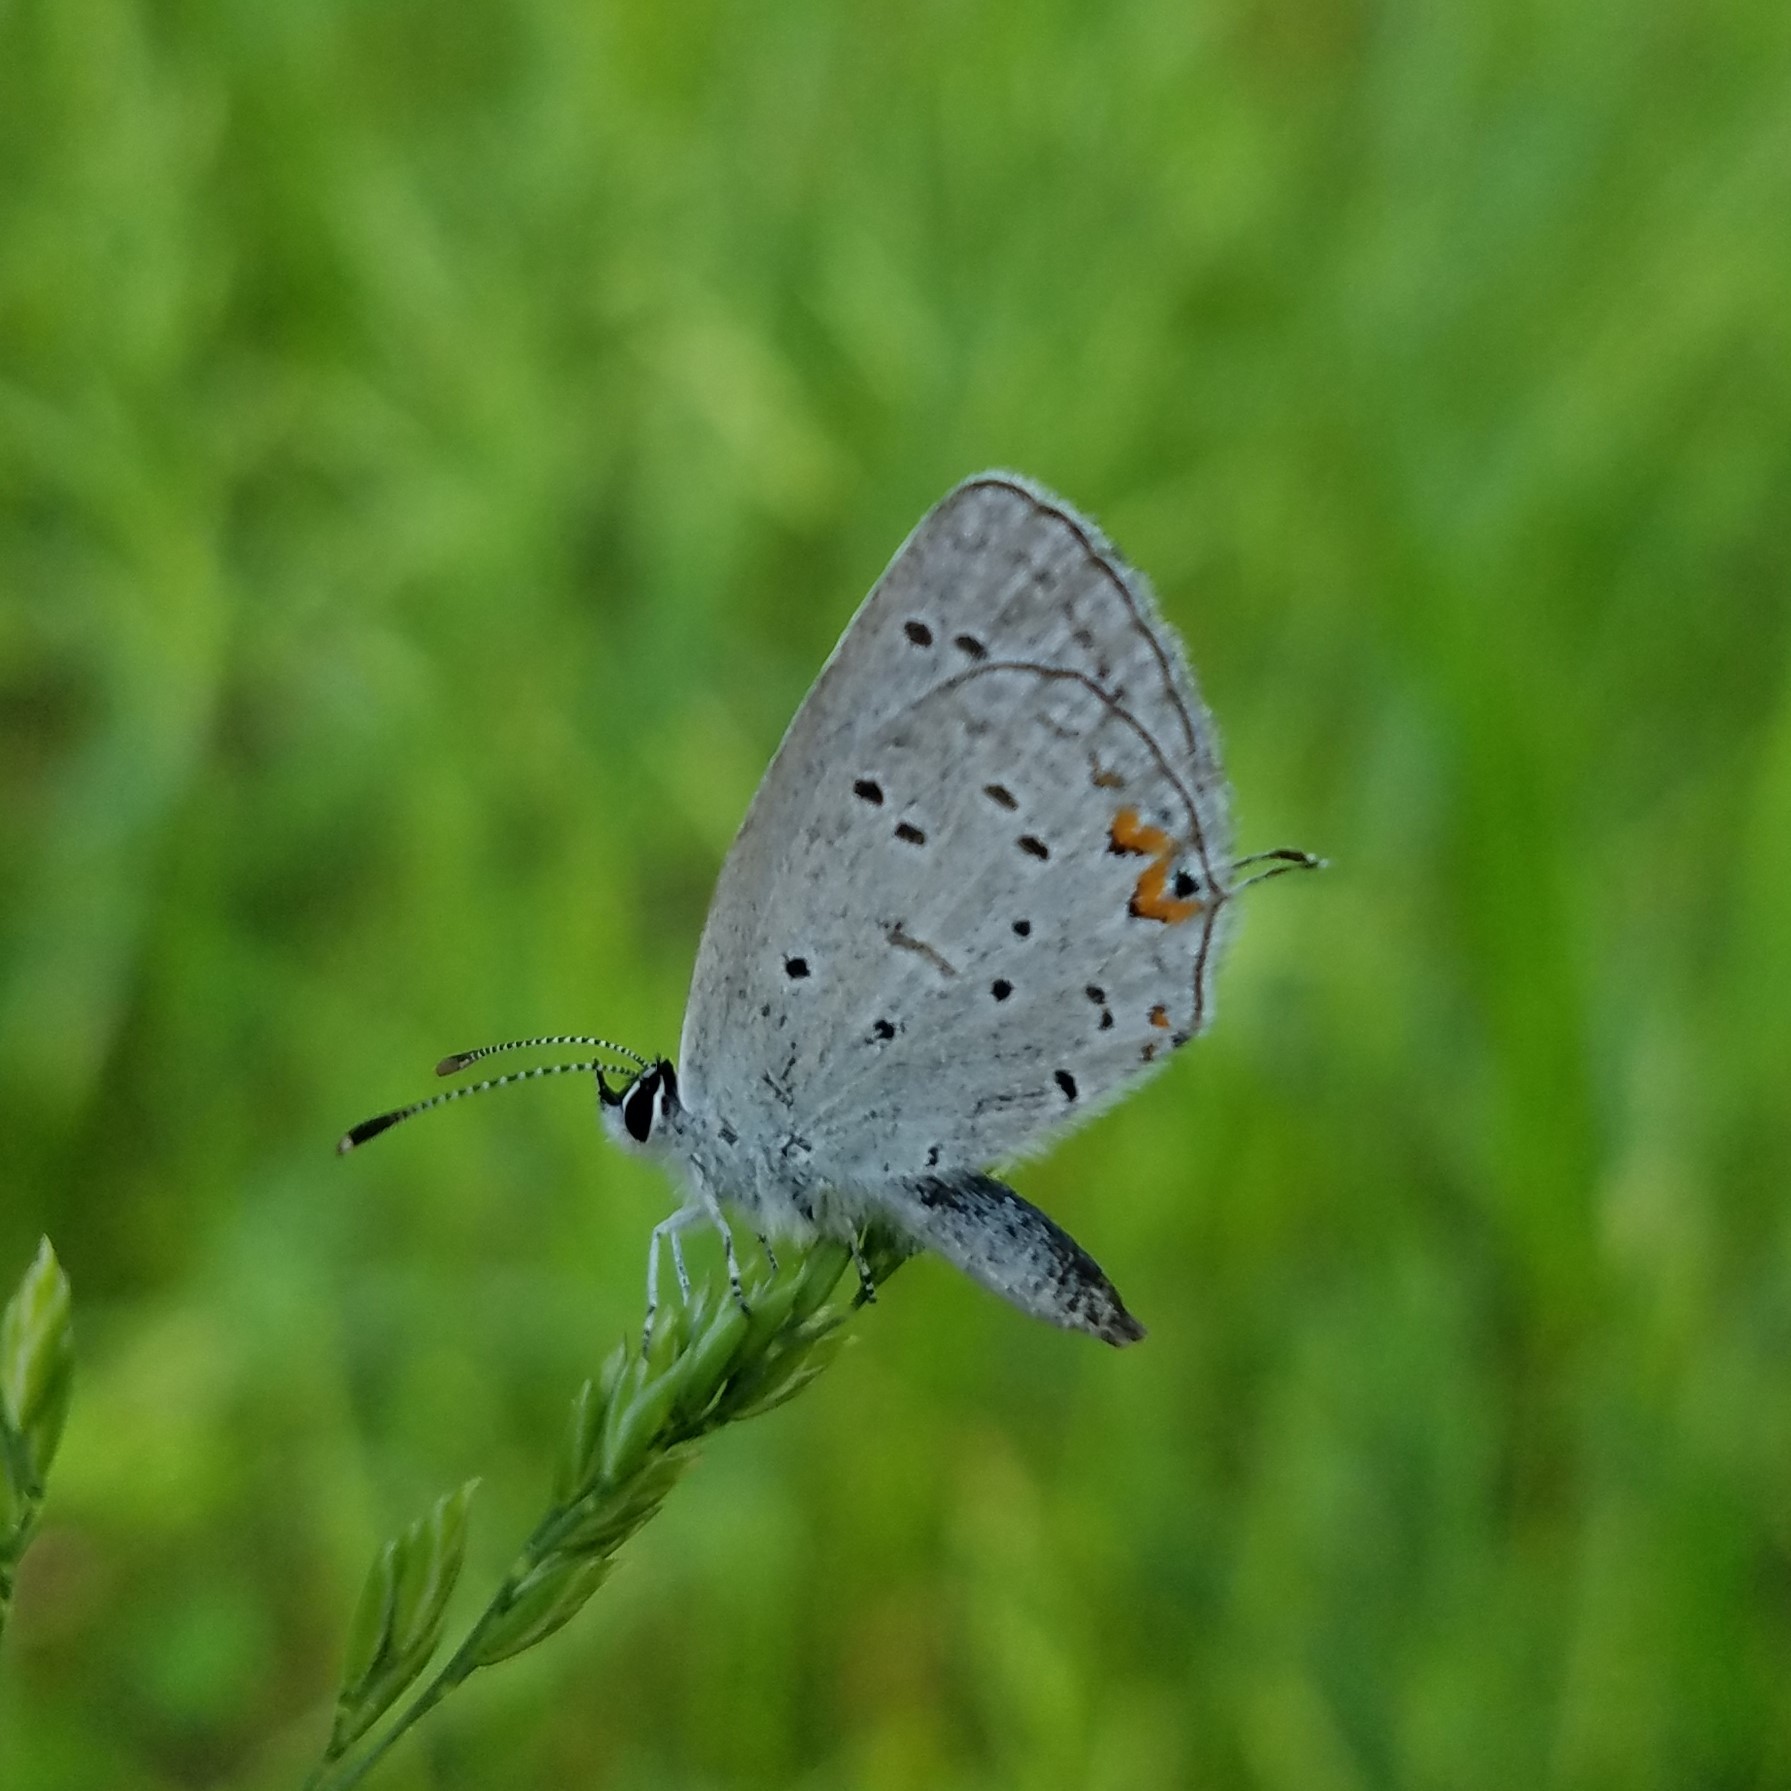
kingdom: Animalia
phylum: Arthropoda
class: Insecta
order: Lepidoptera
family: Lycaenidae
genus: Elkalyce
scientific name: Elkalyce comyntas
